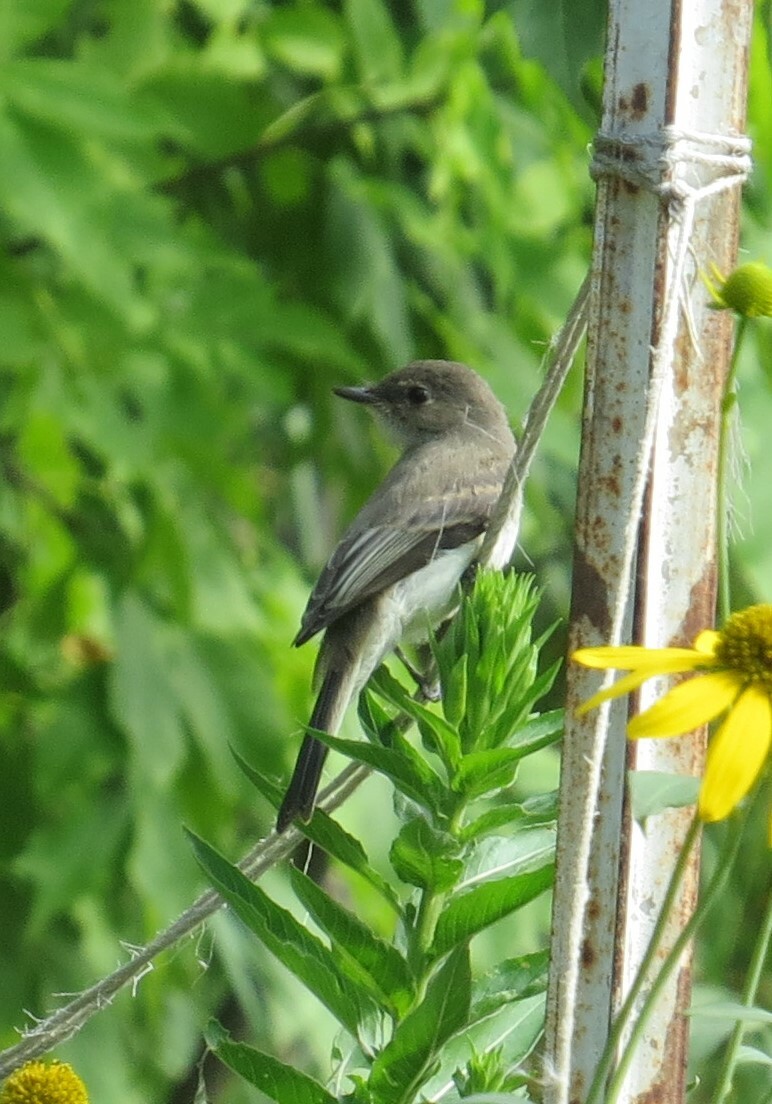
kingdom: Animalia
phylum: Chordata
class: Aves
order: Passeriformes
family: Tyrannidae
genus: Sayornis
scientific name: Sayornis phoebe
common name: Eastern phoebe
